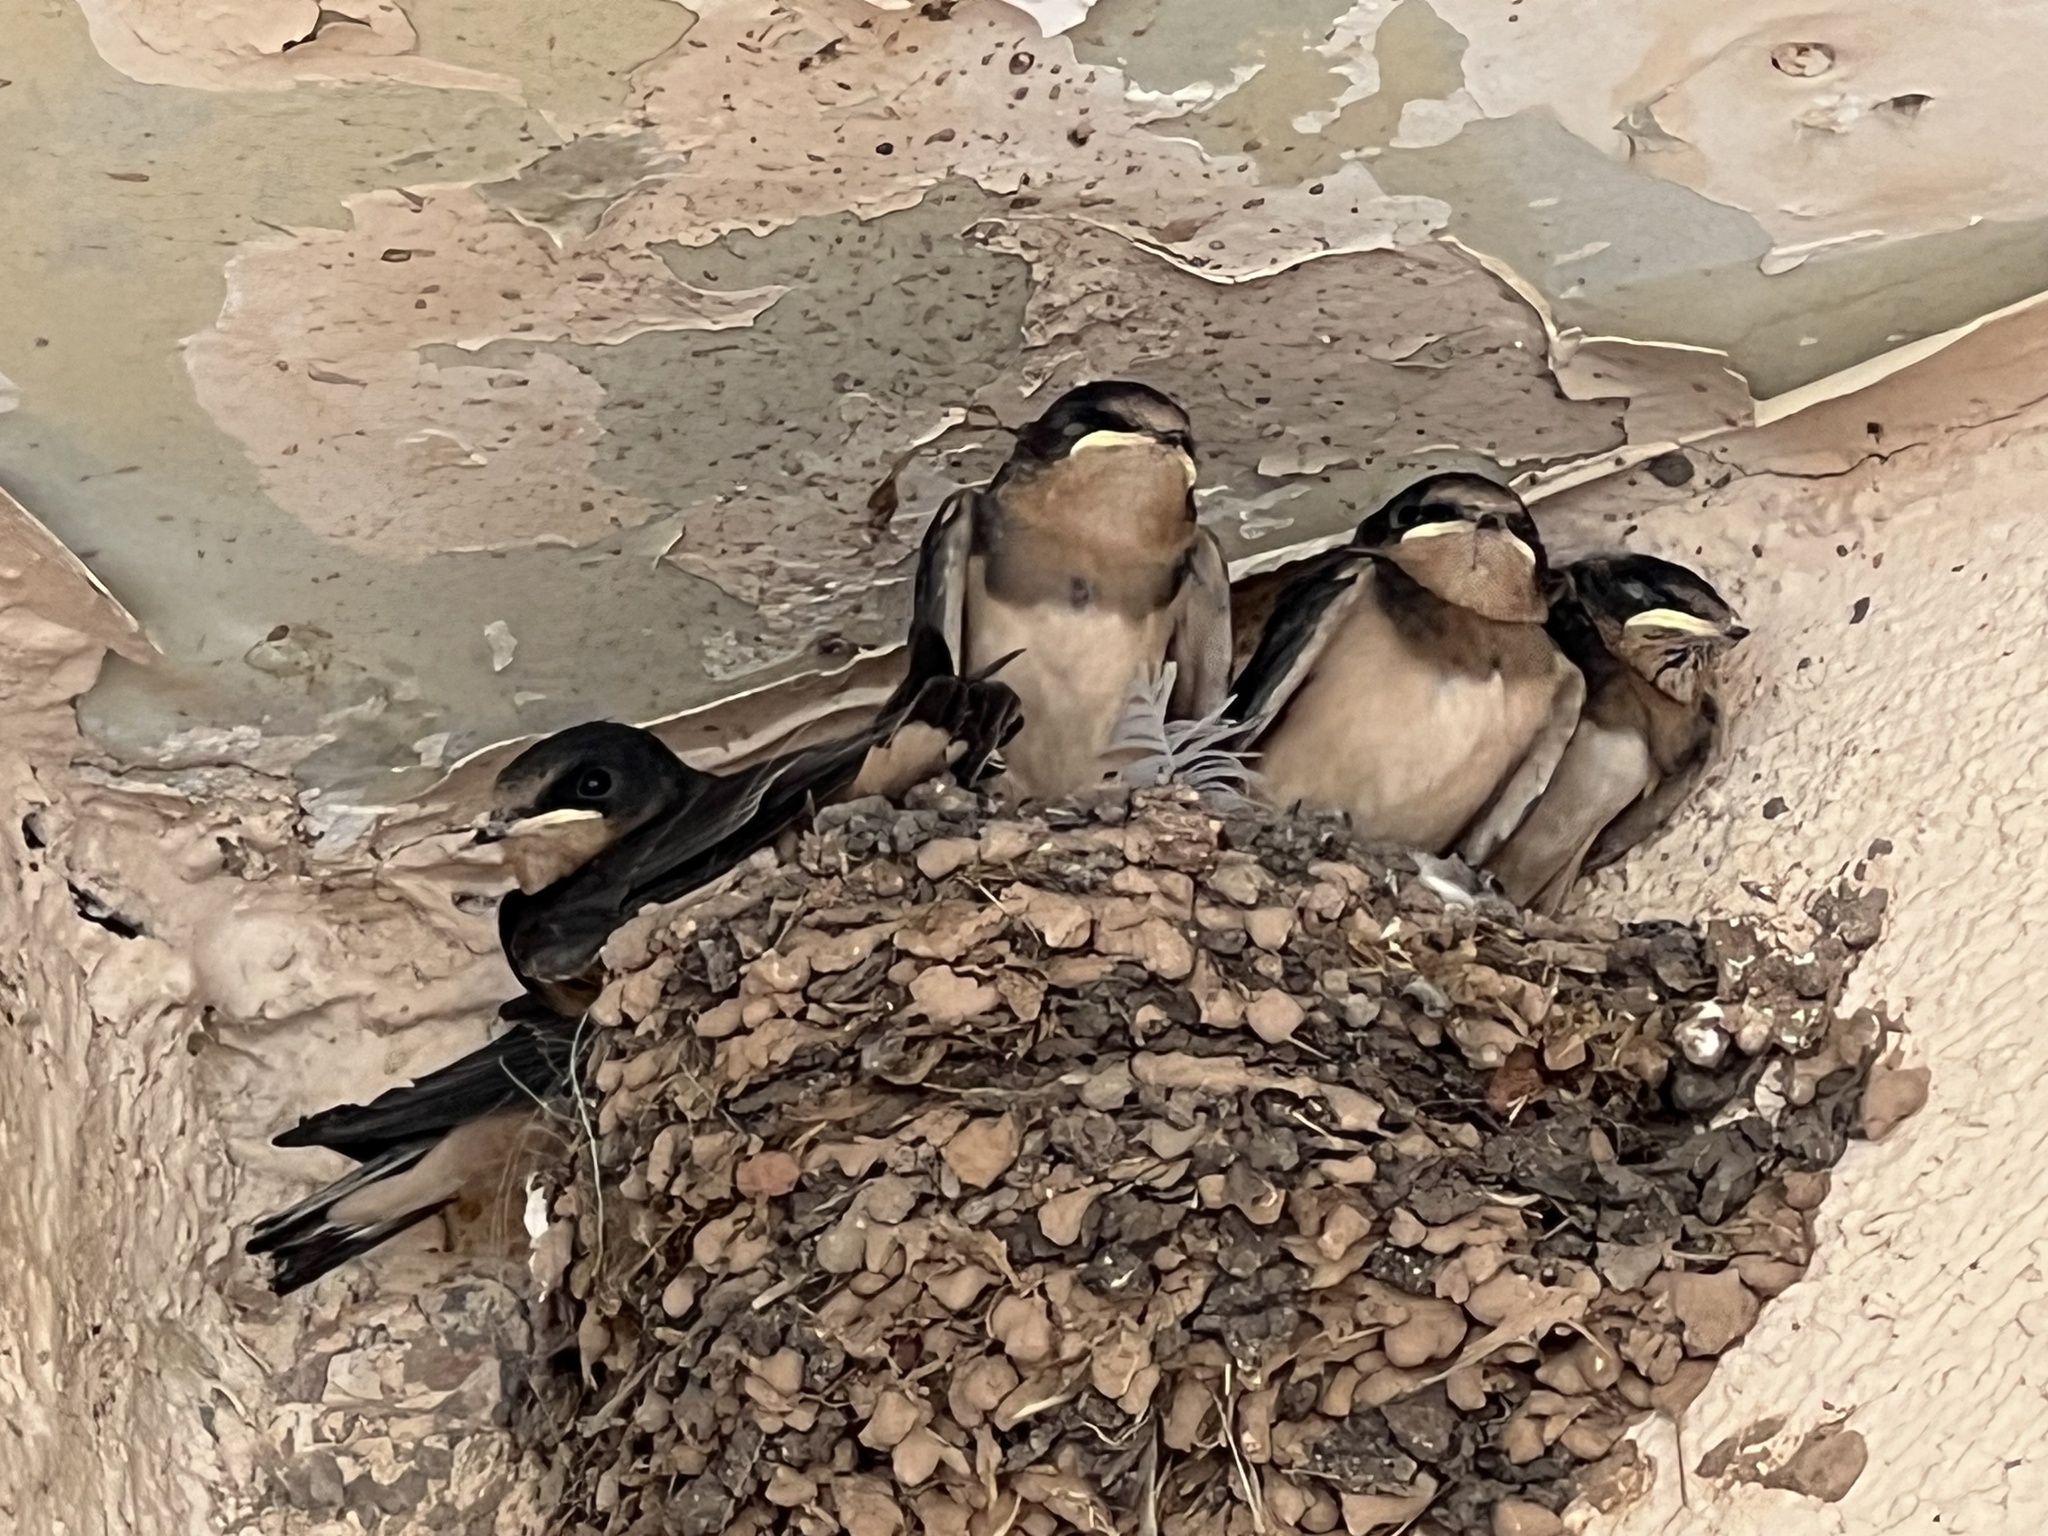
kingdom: Animalia
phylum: Chordata
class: Aves
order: Passeriformes
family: Hirundinidae
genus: Hirundo
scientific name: Hirundo rustica
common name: Barn swallow
